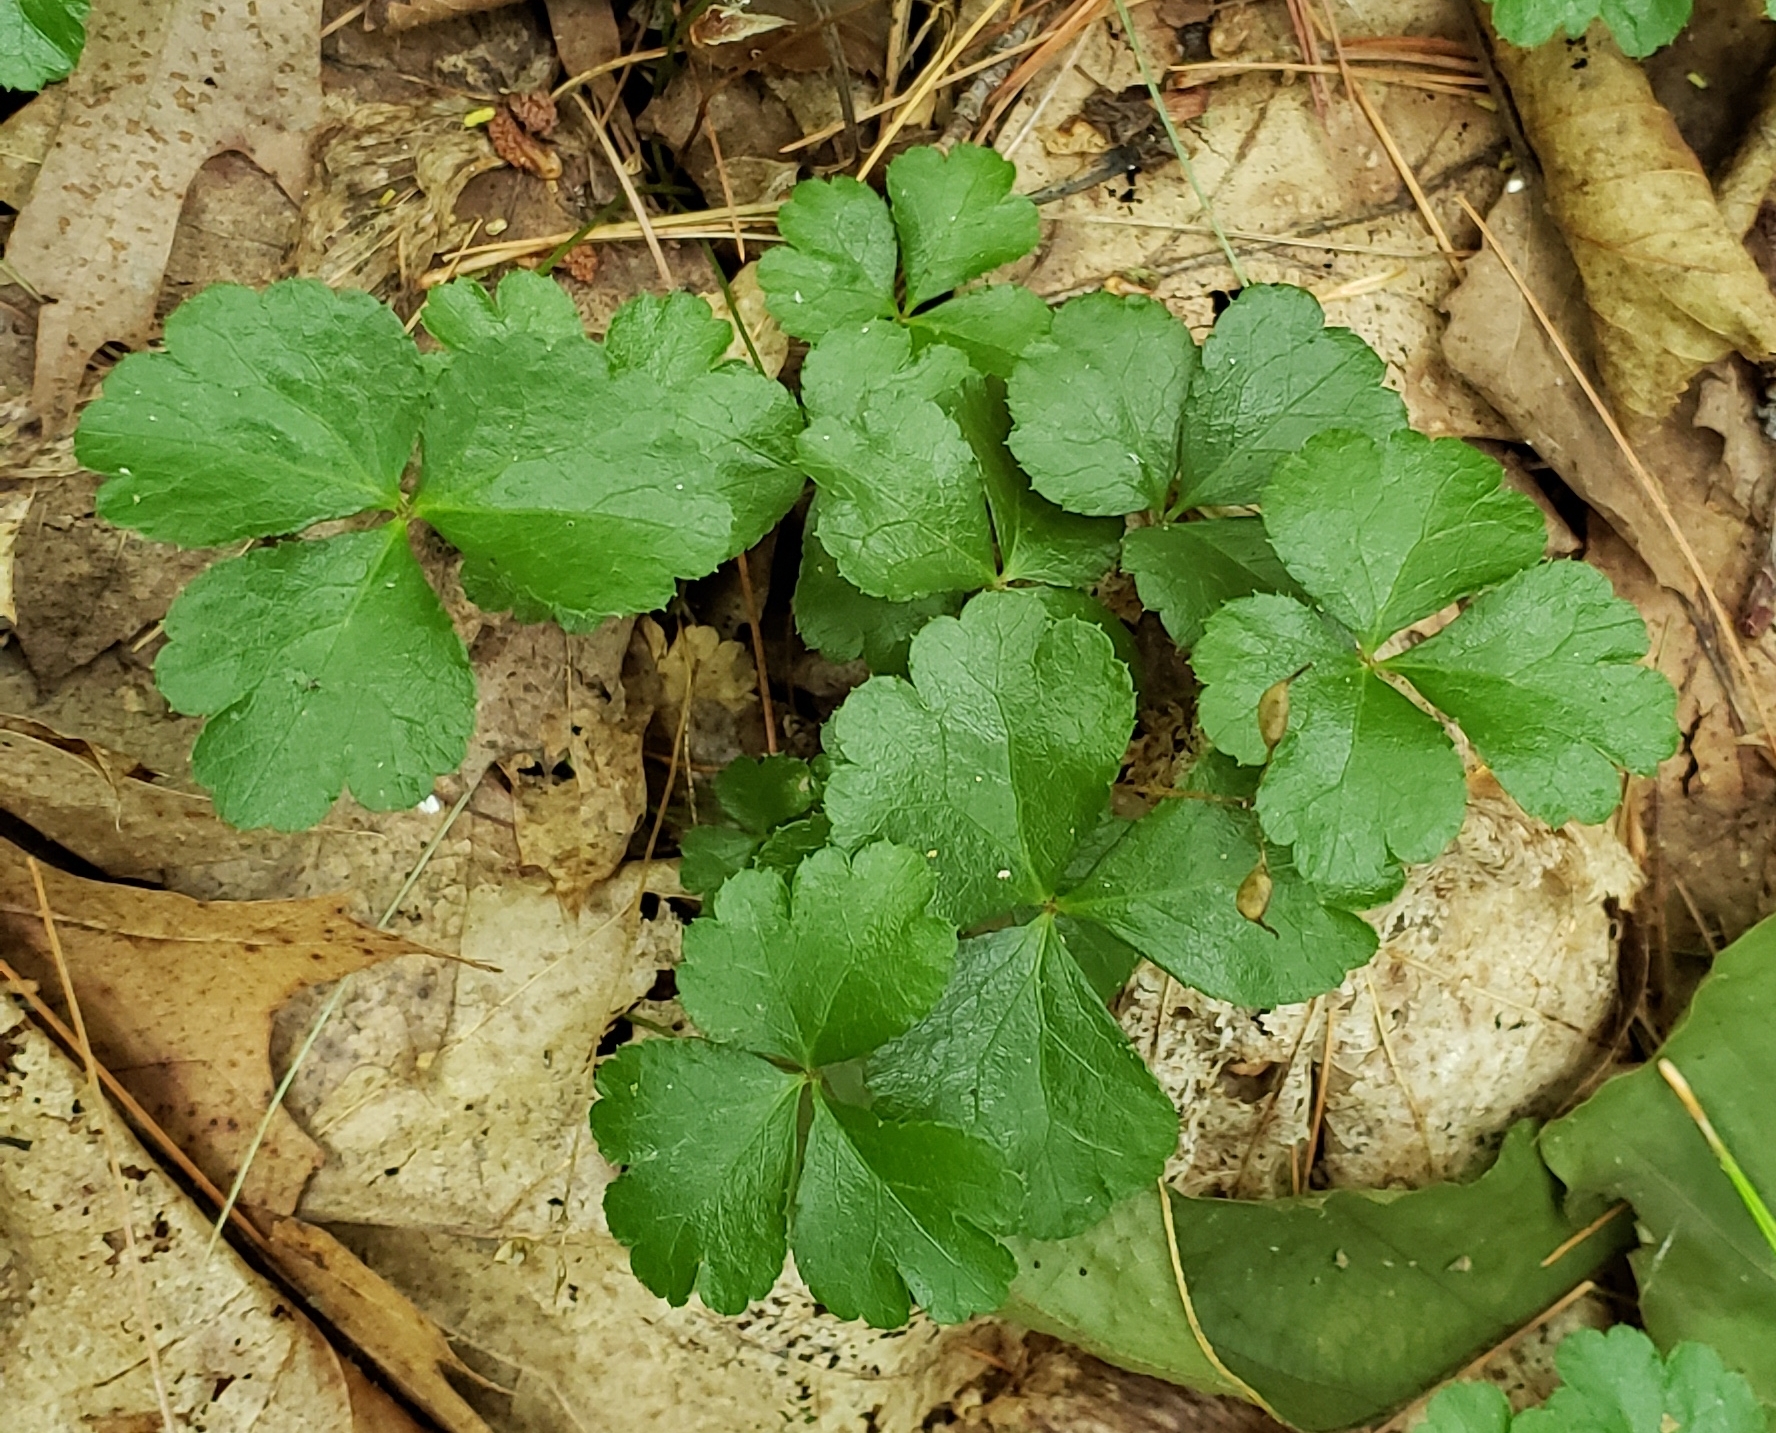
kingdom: Plantae
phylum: Tracheophyta
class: Magnoliopsida
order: Ranunculales
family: Ranunculaceae
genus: Coptis
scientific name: Coptis trifolia
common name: Canker-root
